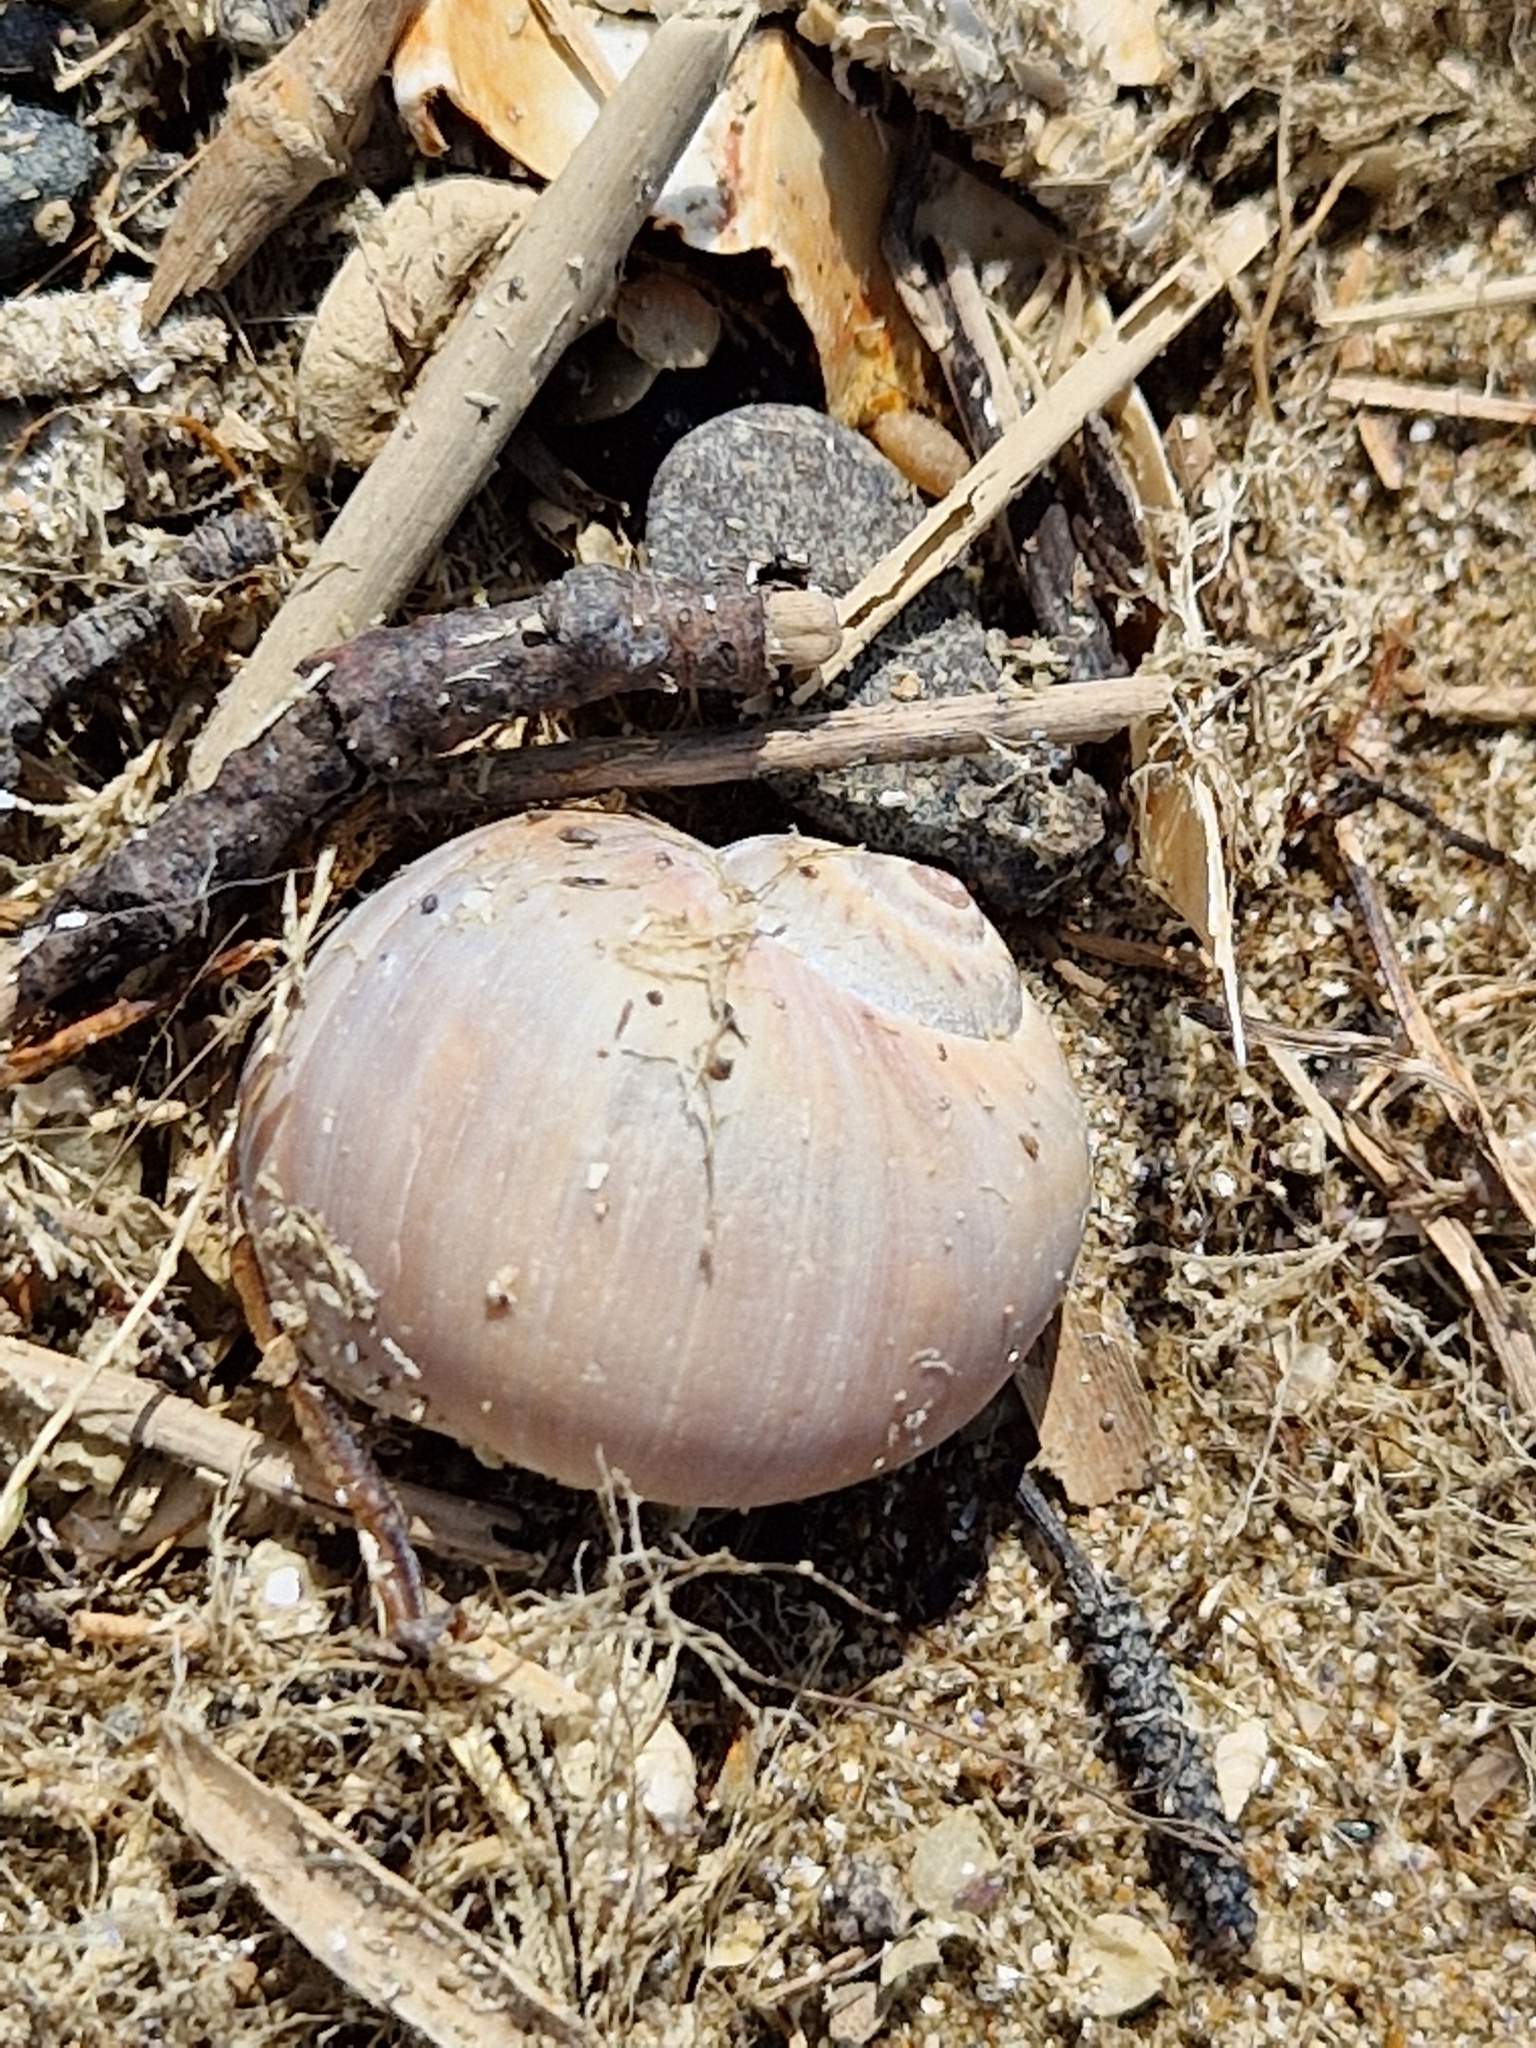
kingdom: Animalia
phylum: Mollusca
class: Gastropoda
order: Littorinimorpha
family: Naticidae
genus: Euspira
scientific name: Euspira catena
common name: Necklace shell
